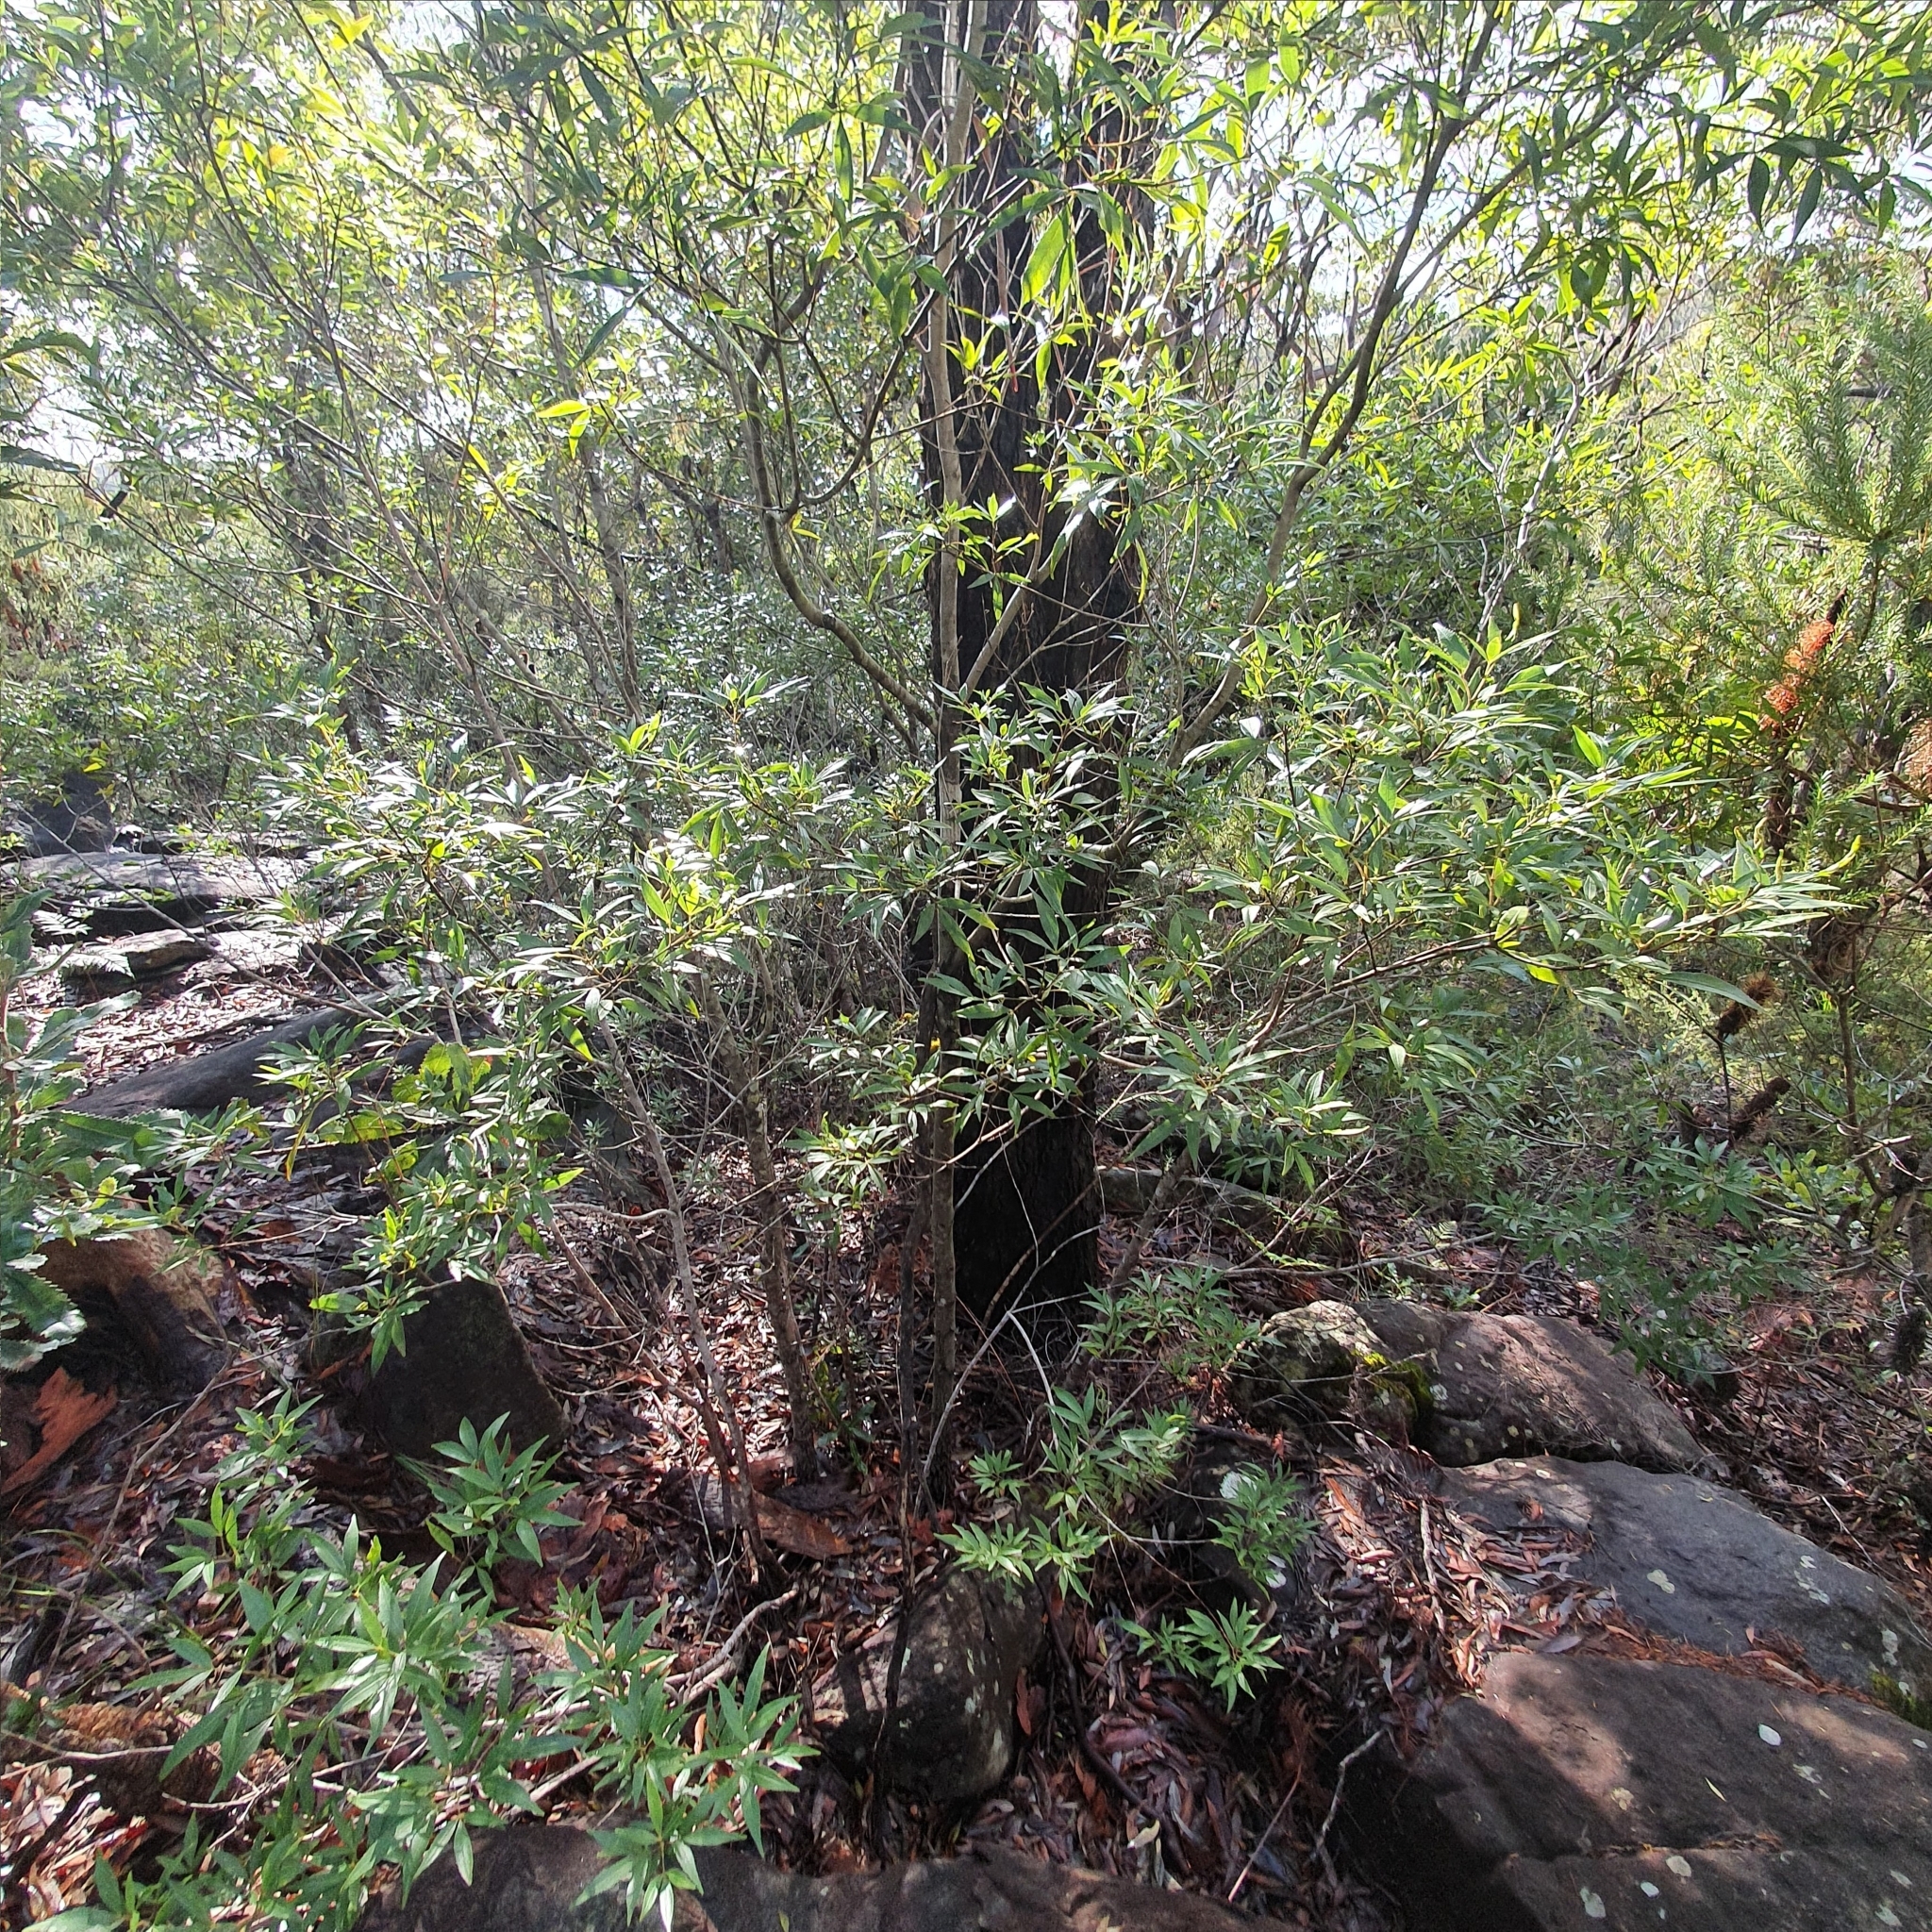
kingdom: Plantae
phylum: Tracheophyta
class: Magnoliopsida
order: Oxalidales
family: Cunoniaceae
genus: Ceratopetalum
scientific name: Ceratopetalum gummiferum
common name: Christmasbush
